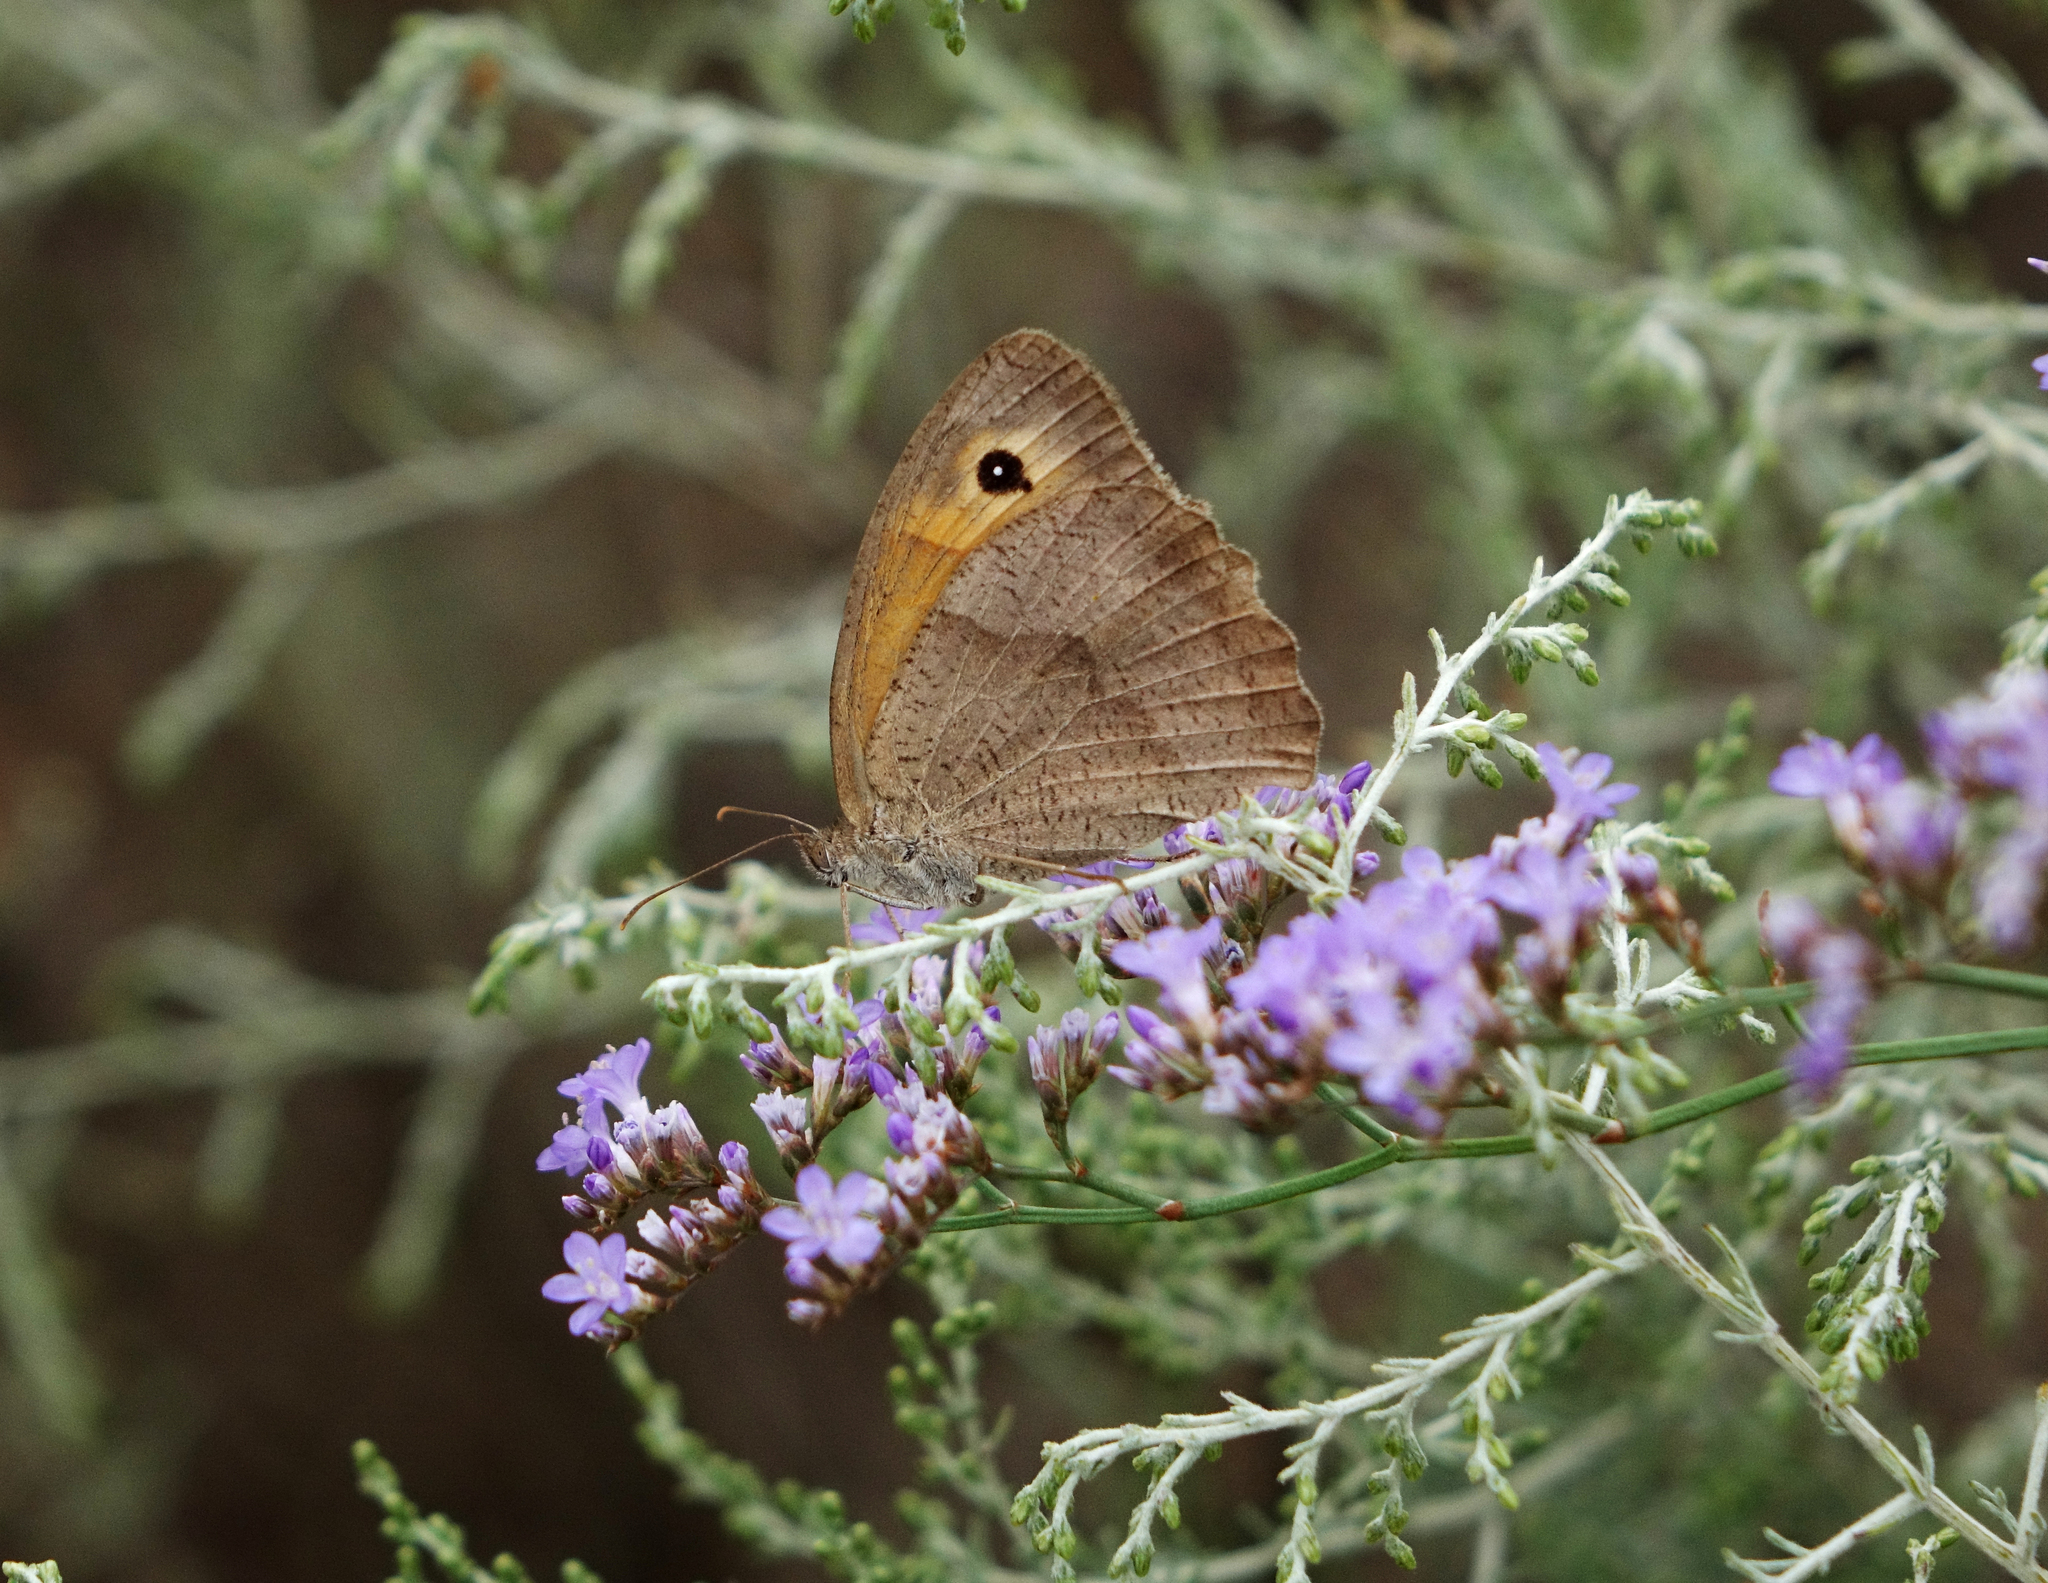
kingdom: Animalia
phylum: Arthropoda
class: Insecta
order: Lepidoptera
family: Nymphalidae
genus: Maniola
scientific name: Maniola jurtina
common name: Meadow brown
